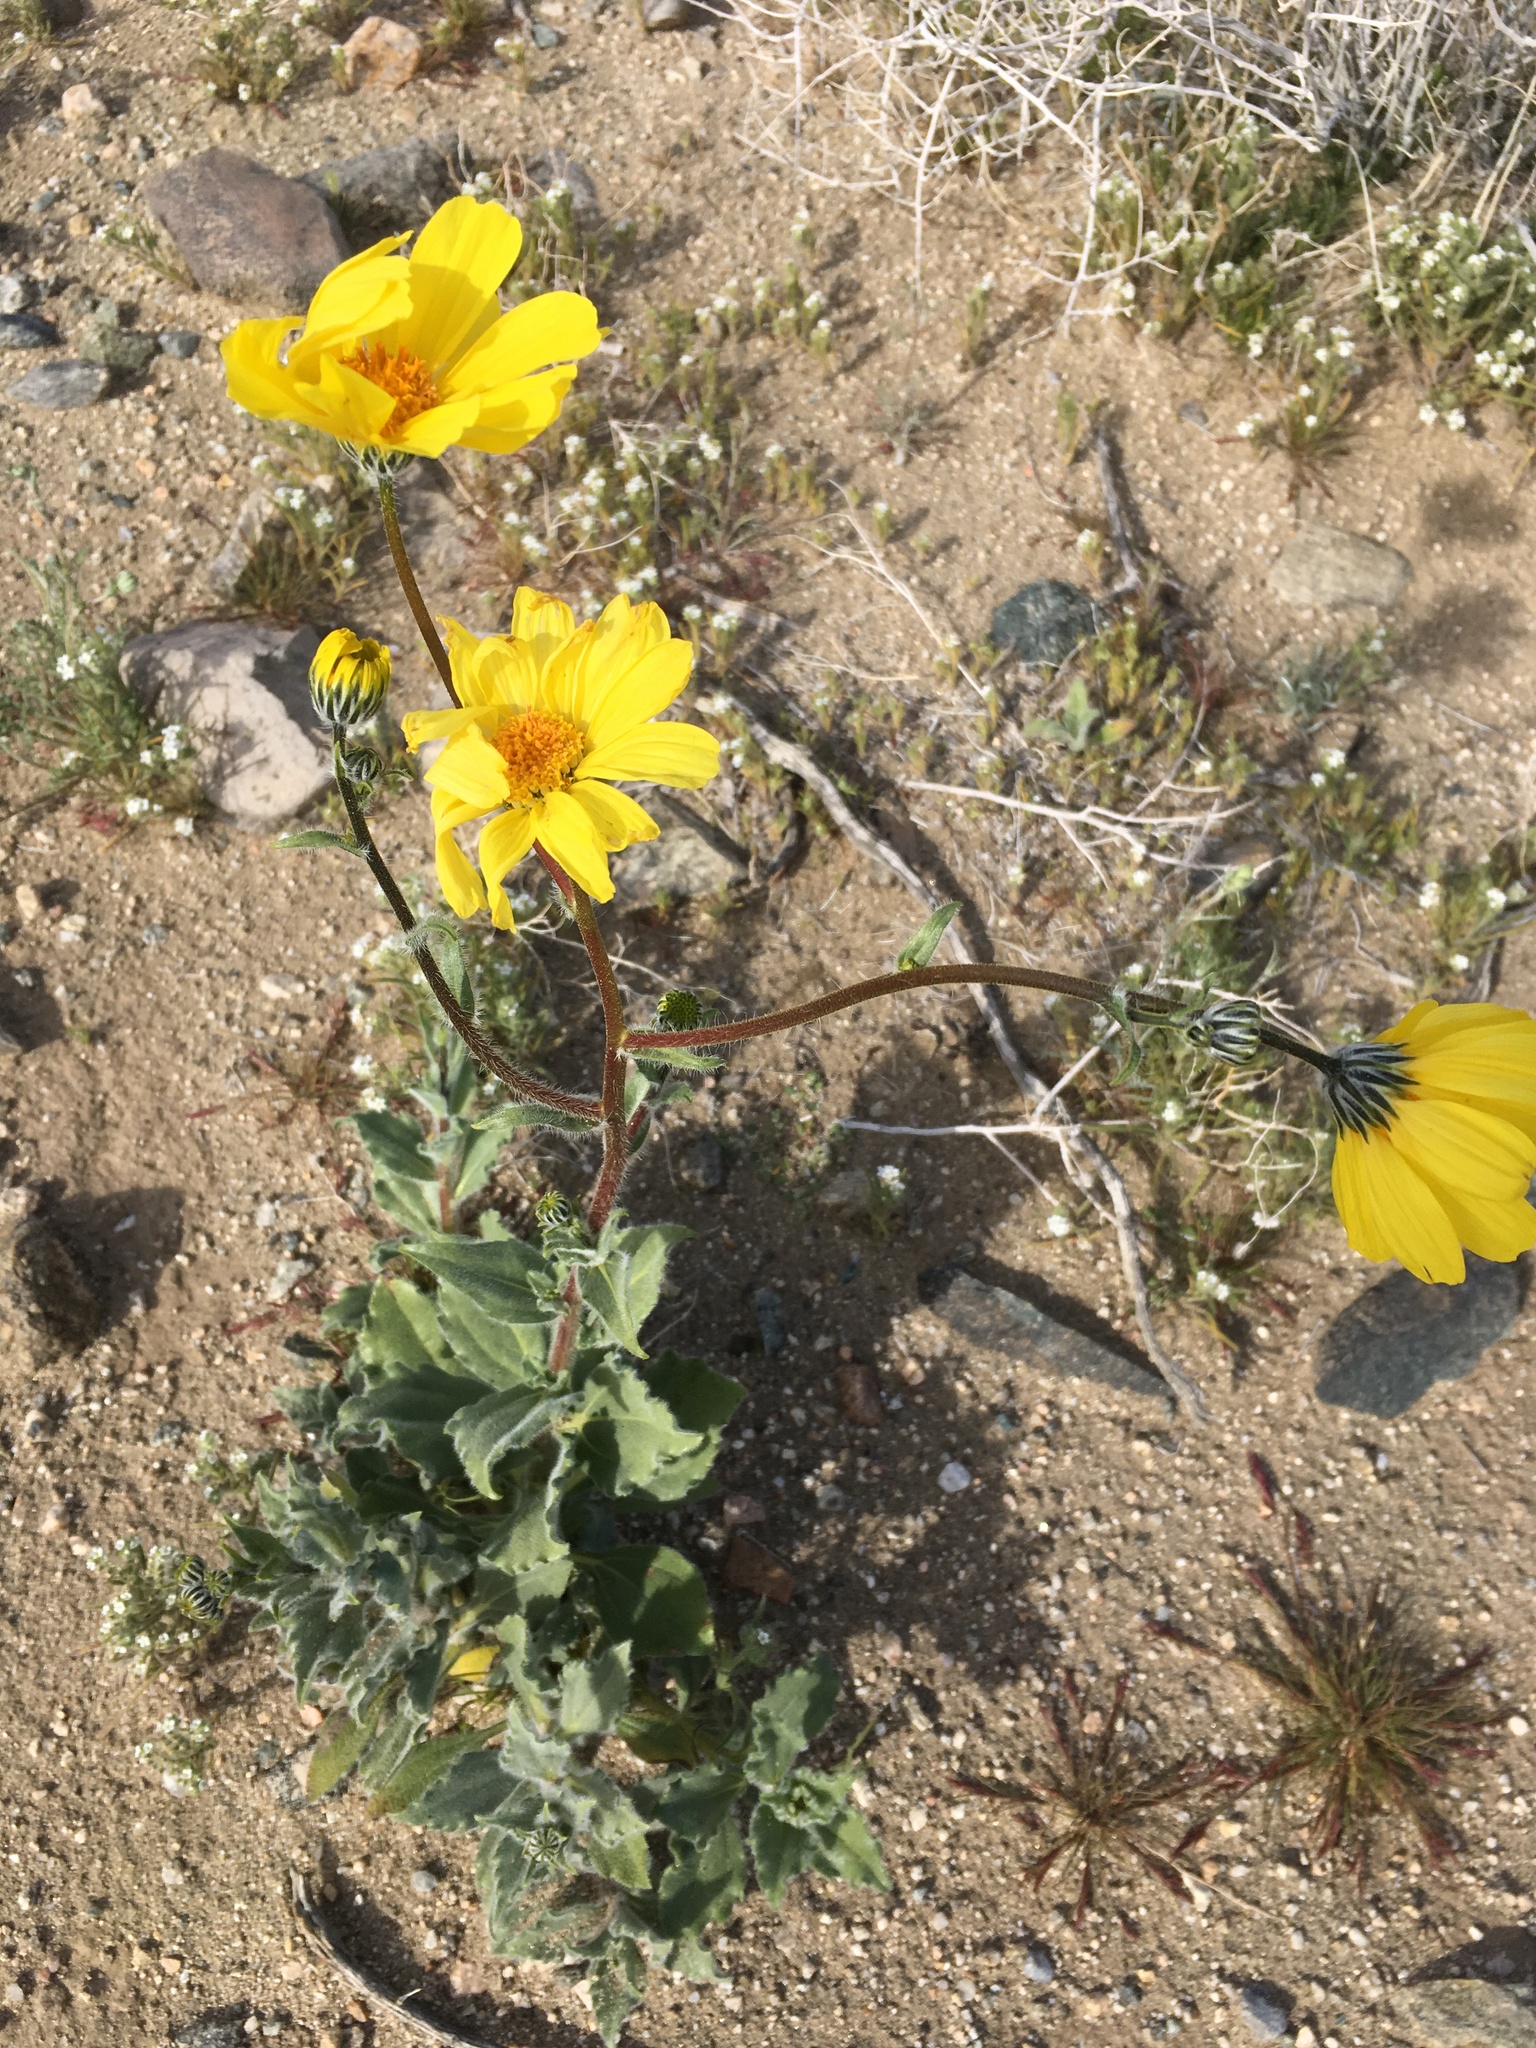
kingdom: Plantae
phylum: Tracheophyta
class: Magnoliopsida
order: Asterales
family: Asteraceae
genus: Geraea
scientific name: Geraea canescens
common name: Desert-gold
